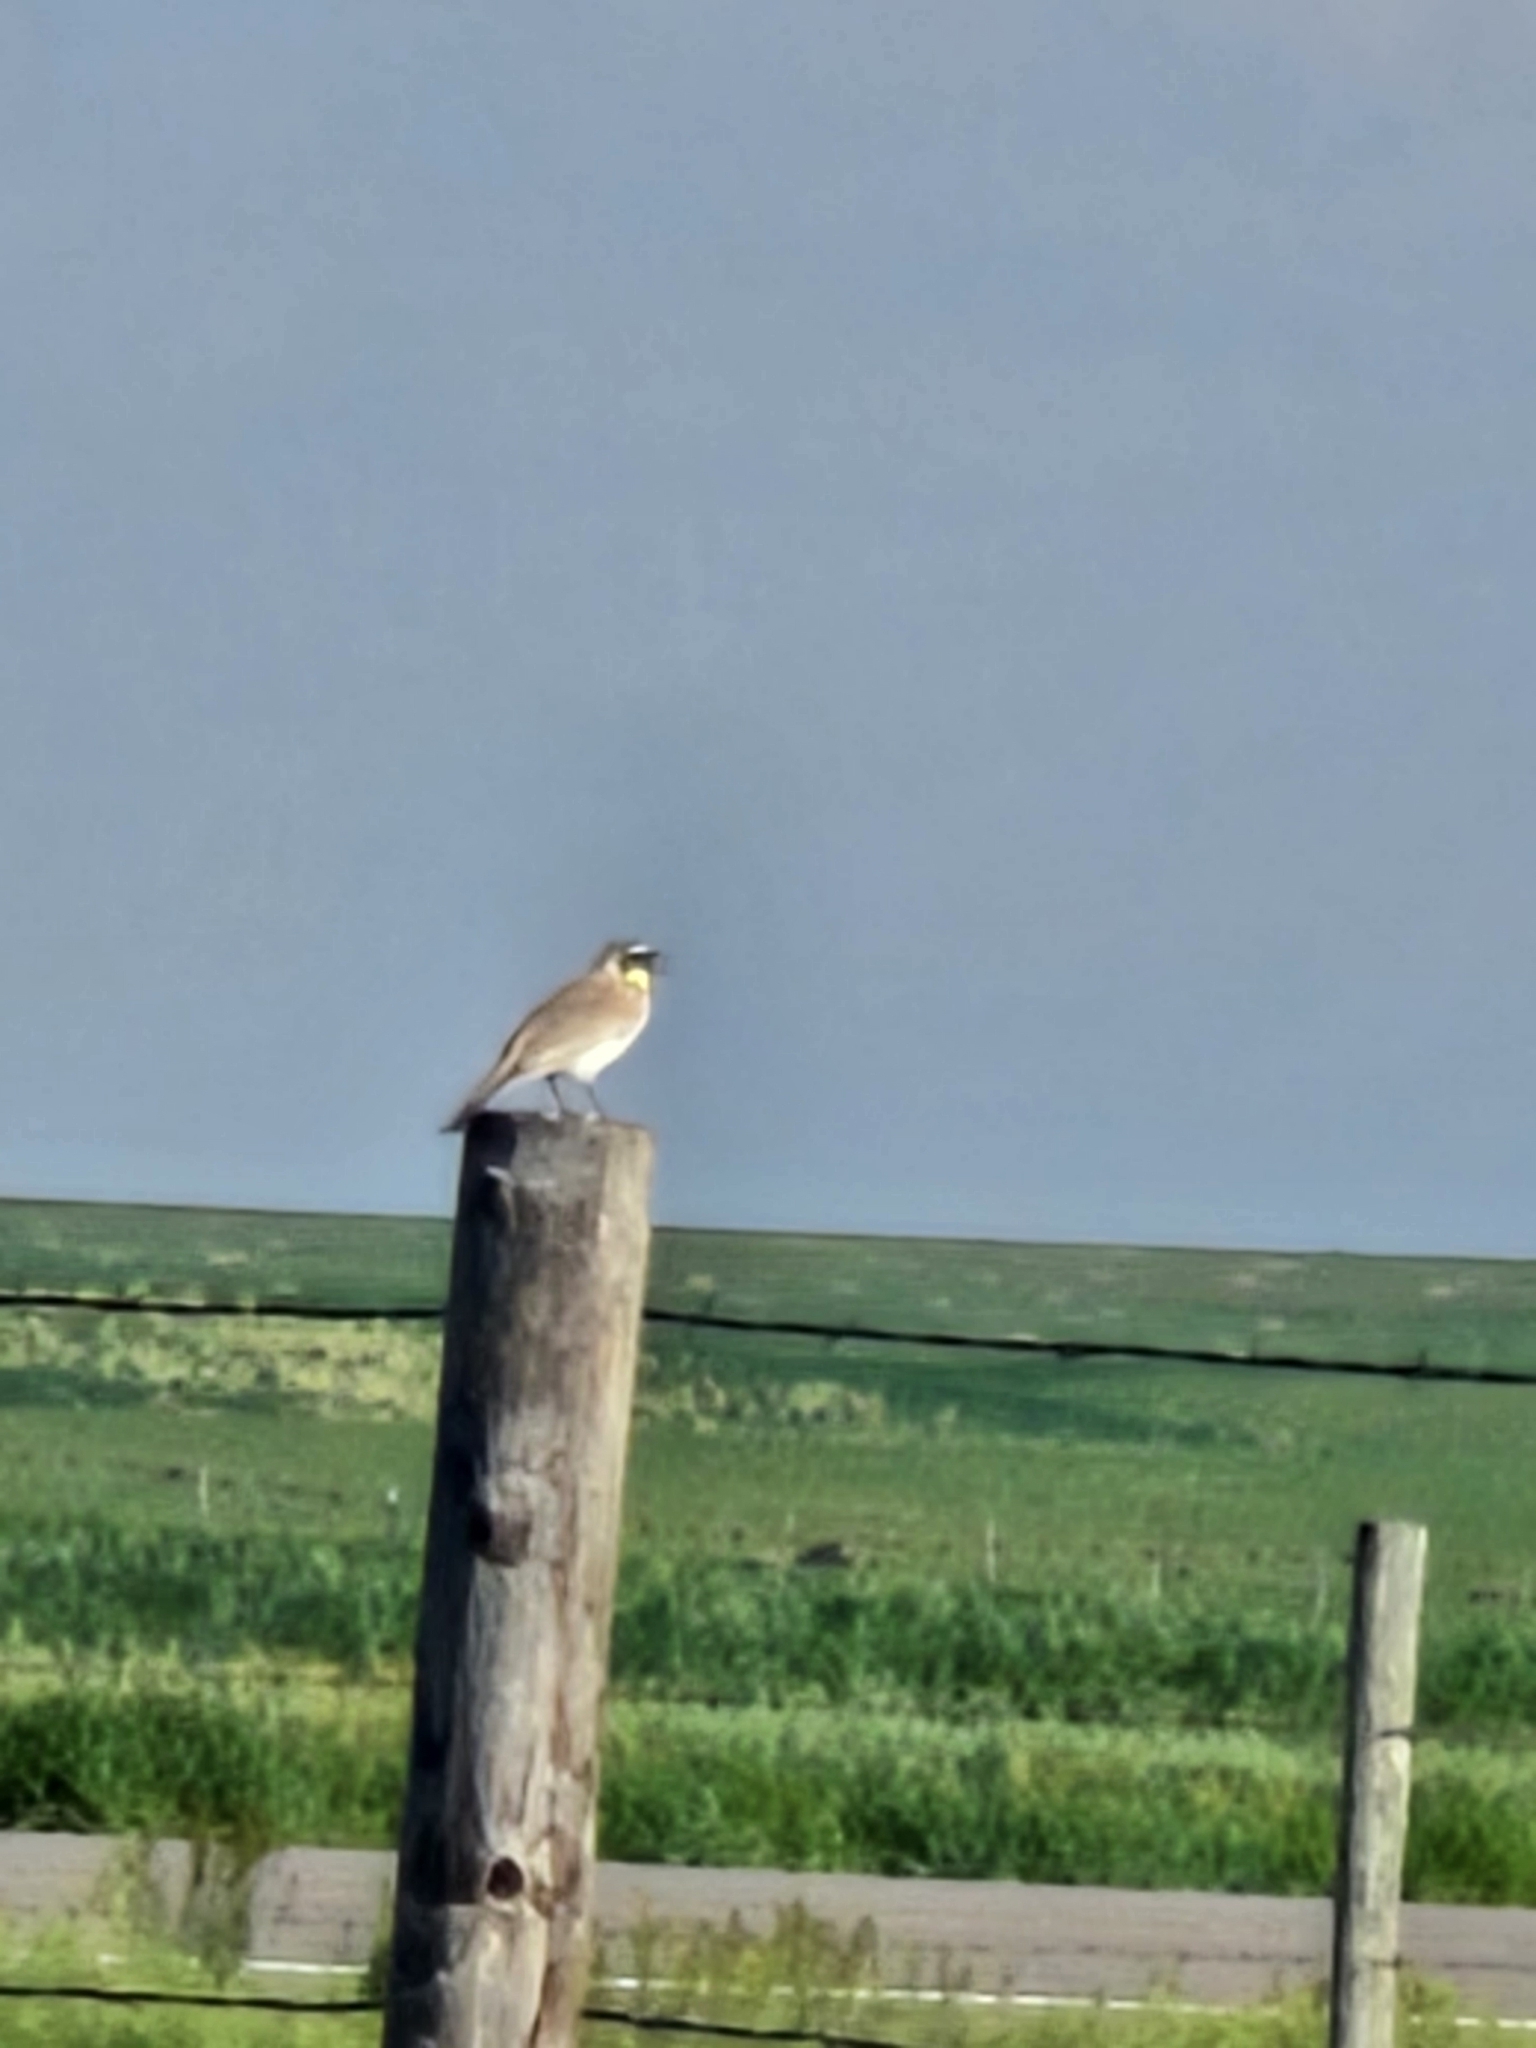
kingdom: Animalia
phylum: Chordata
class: Aves
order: Passeriformes
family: Alaudidae
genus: Eremophila
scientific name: Eremophila alpestris
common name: Horned lark
